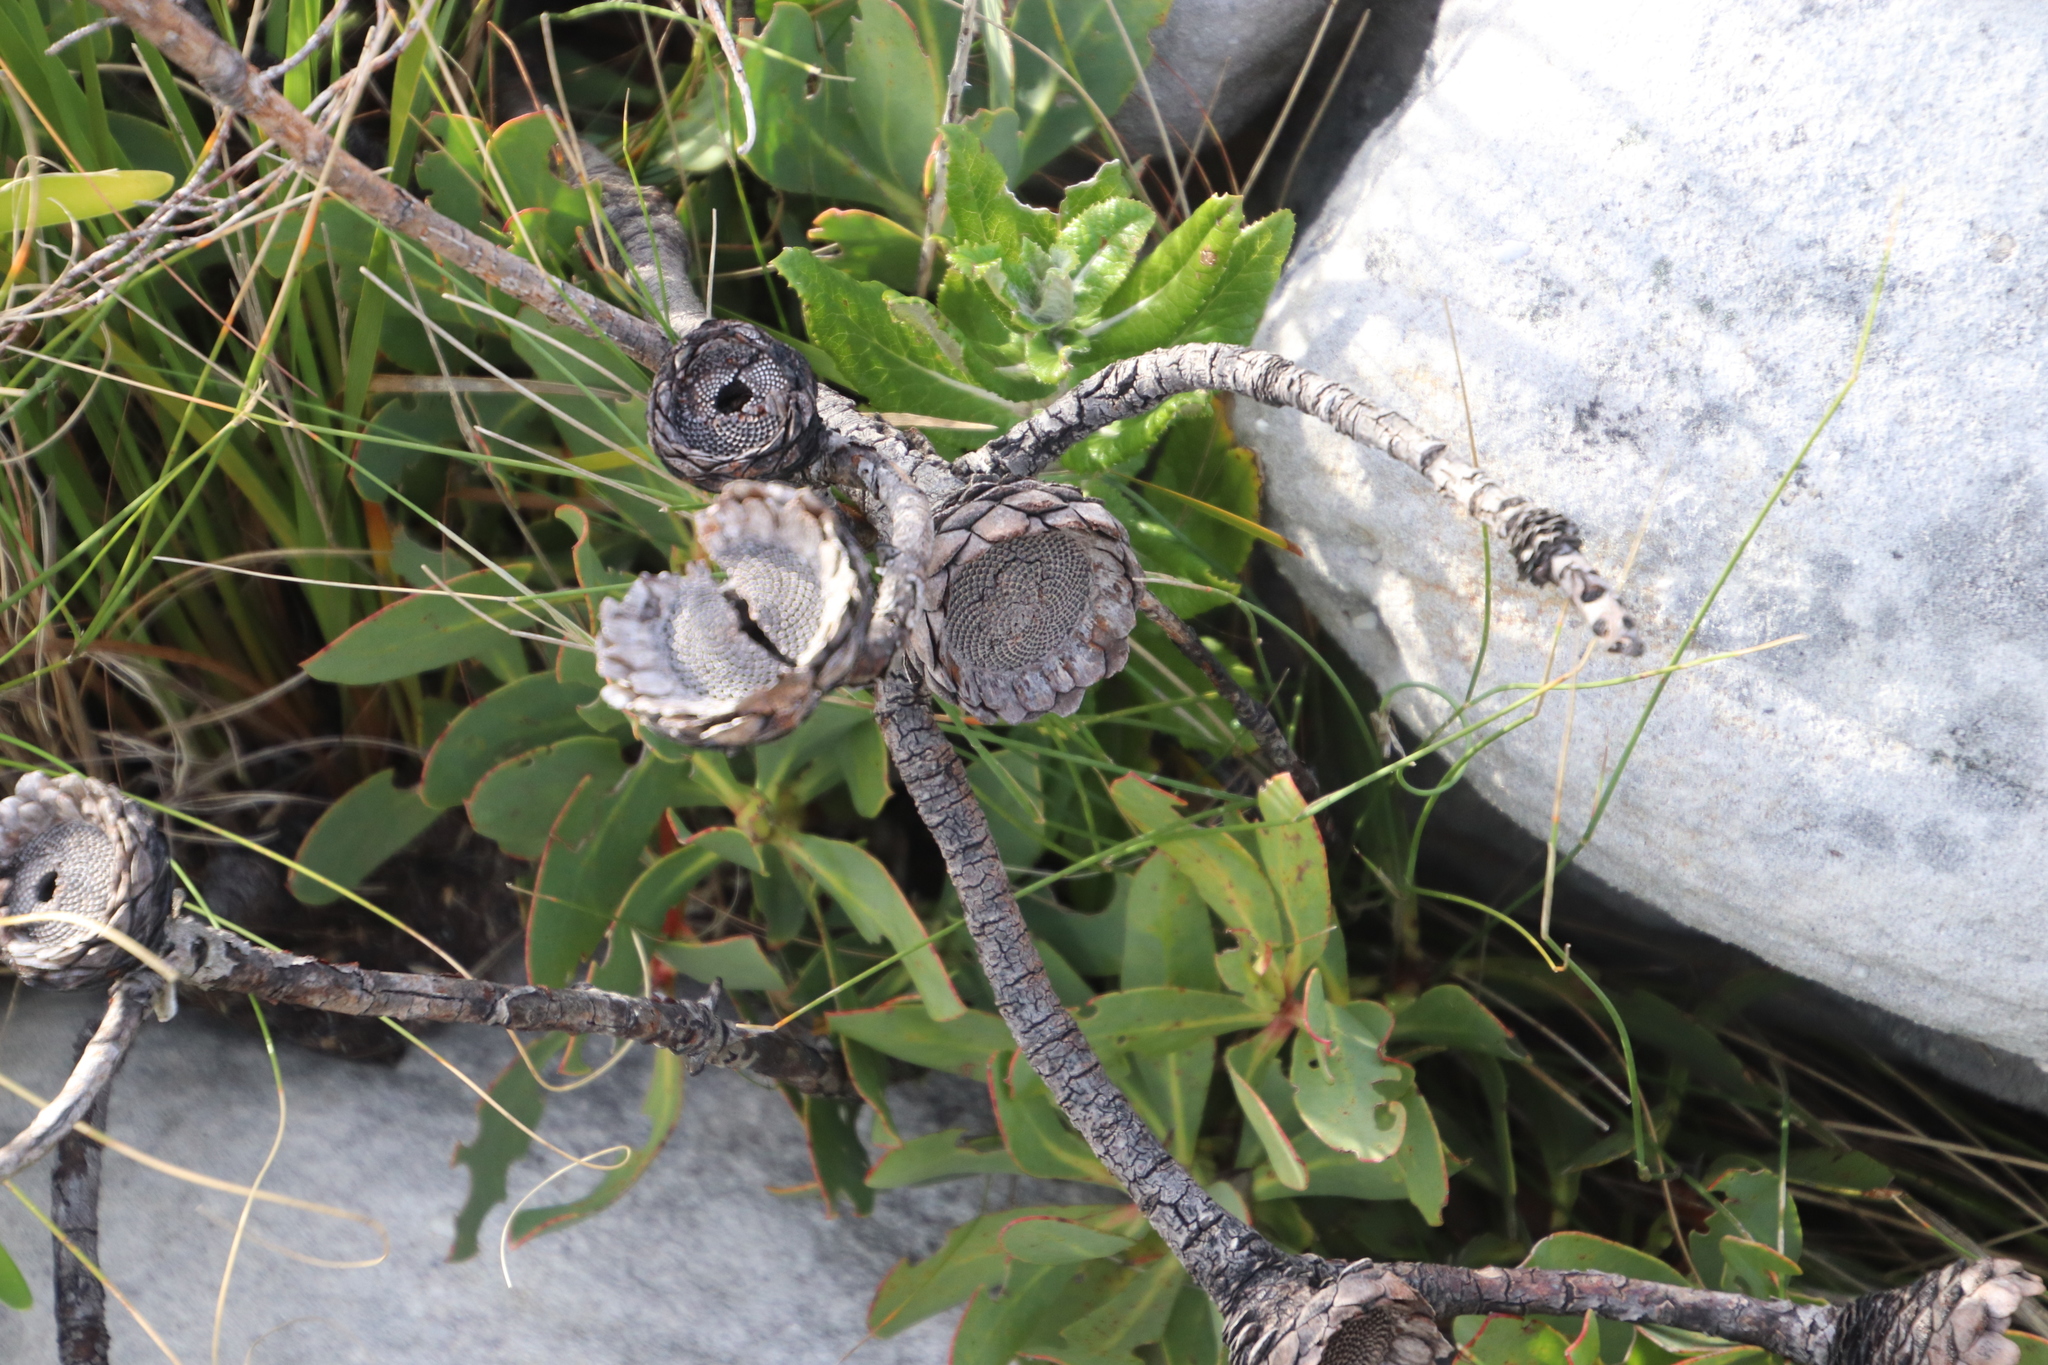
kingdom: Plantae
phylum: Tracheophyta
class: Magnoliopsida
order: Proteales
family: Proteaceae
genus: Protea
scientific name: Protea speciosa
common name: Brown-beard sugarbush
